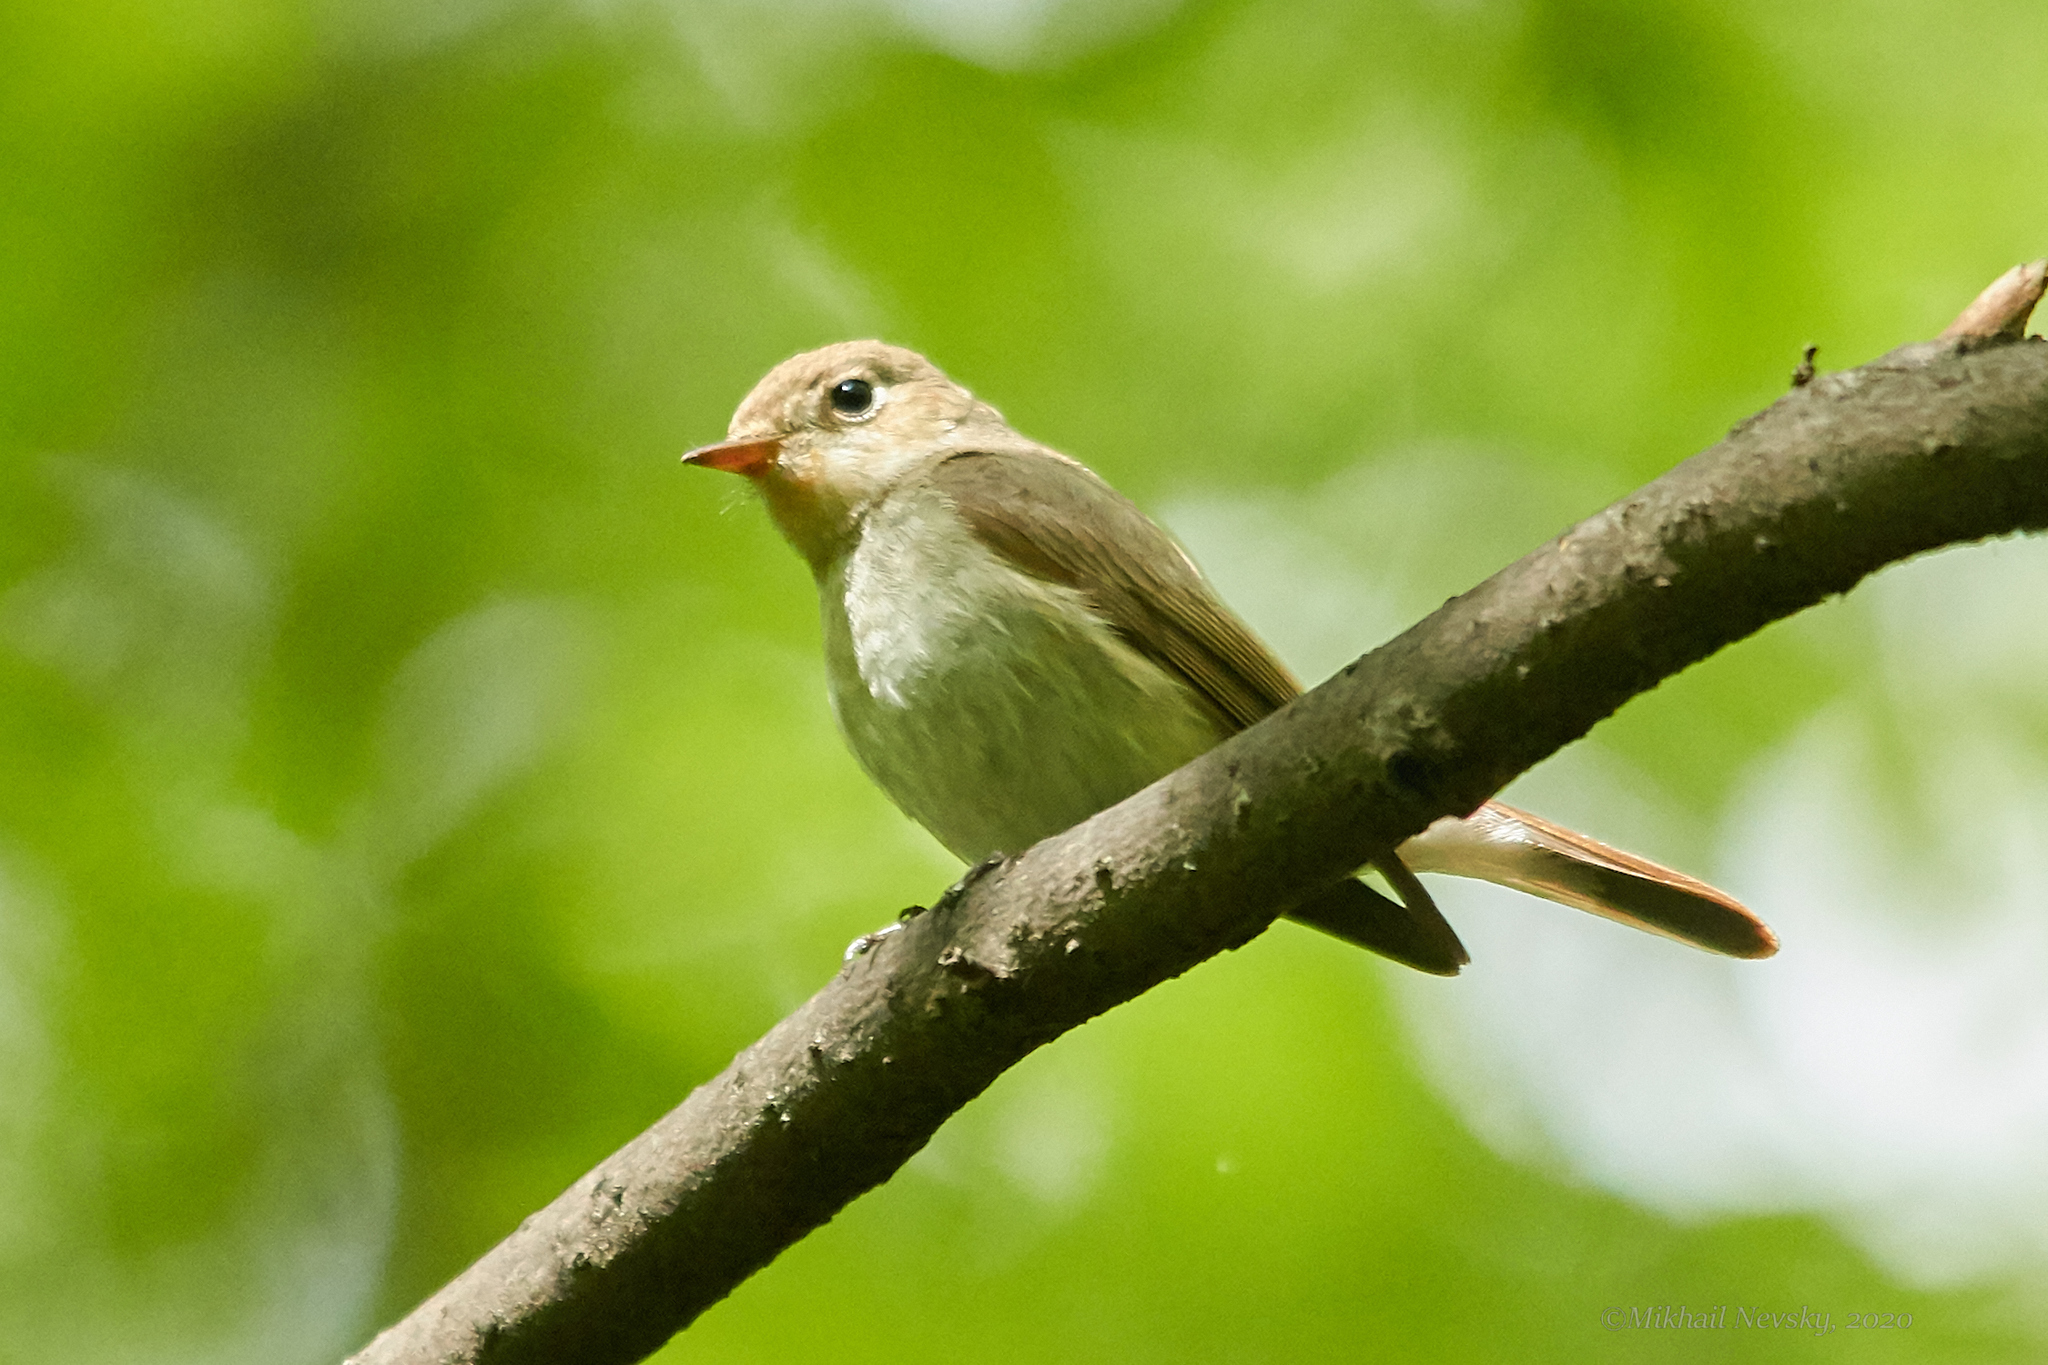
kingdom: Animalia
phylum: Chordata
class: Aves
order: Passeriformes
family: Muscicapidae
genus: Ficedula
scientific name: Ficedula parva
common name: Red-breasted flycatcher
